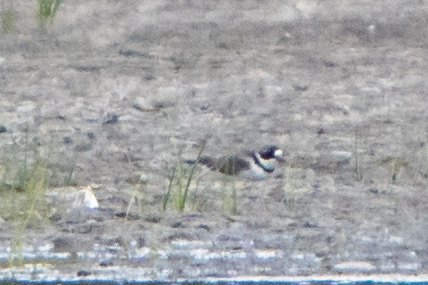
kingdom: Animalia
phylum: Chordata
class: Aves
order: Charadriiformes
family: Charadriidae
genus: Charadrius
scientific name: Charadrius semipalmatus
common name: Semipalmated plover
